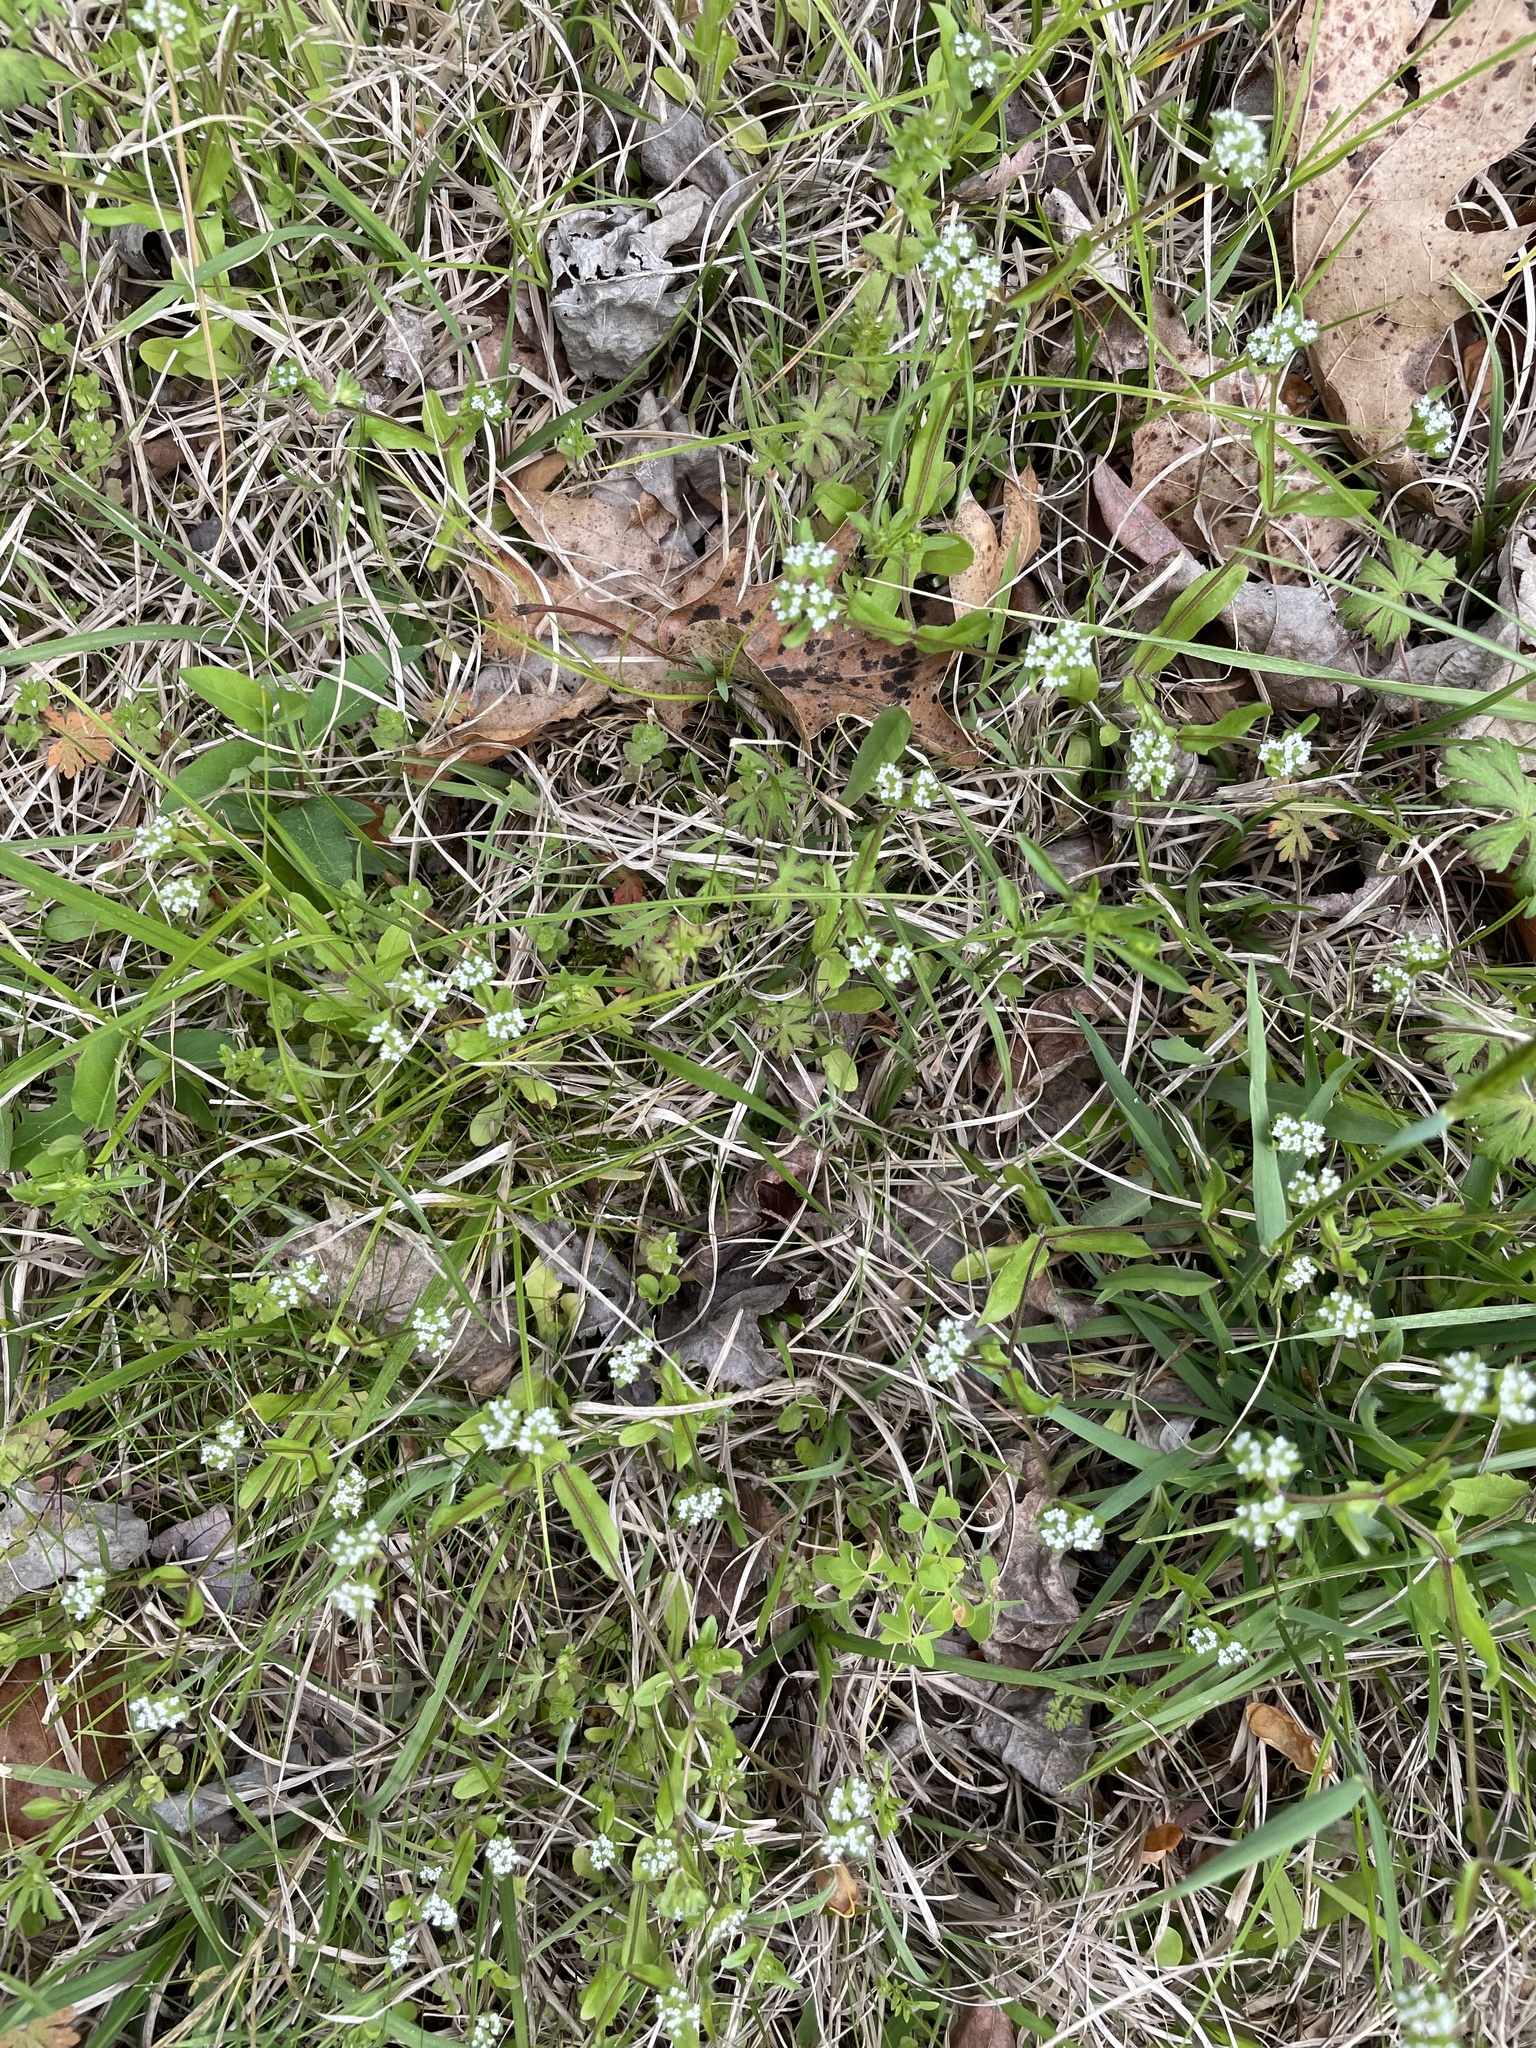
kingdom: Plantae
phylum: Tracheophyta
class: Magnoliopsida
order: Dipsacales
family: Caprifoliaceae
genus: Valerianella
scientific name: Valerianella locusta
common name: Common cornsalad
